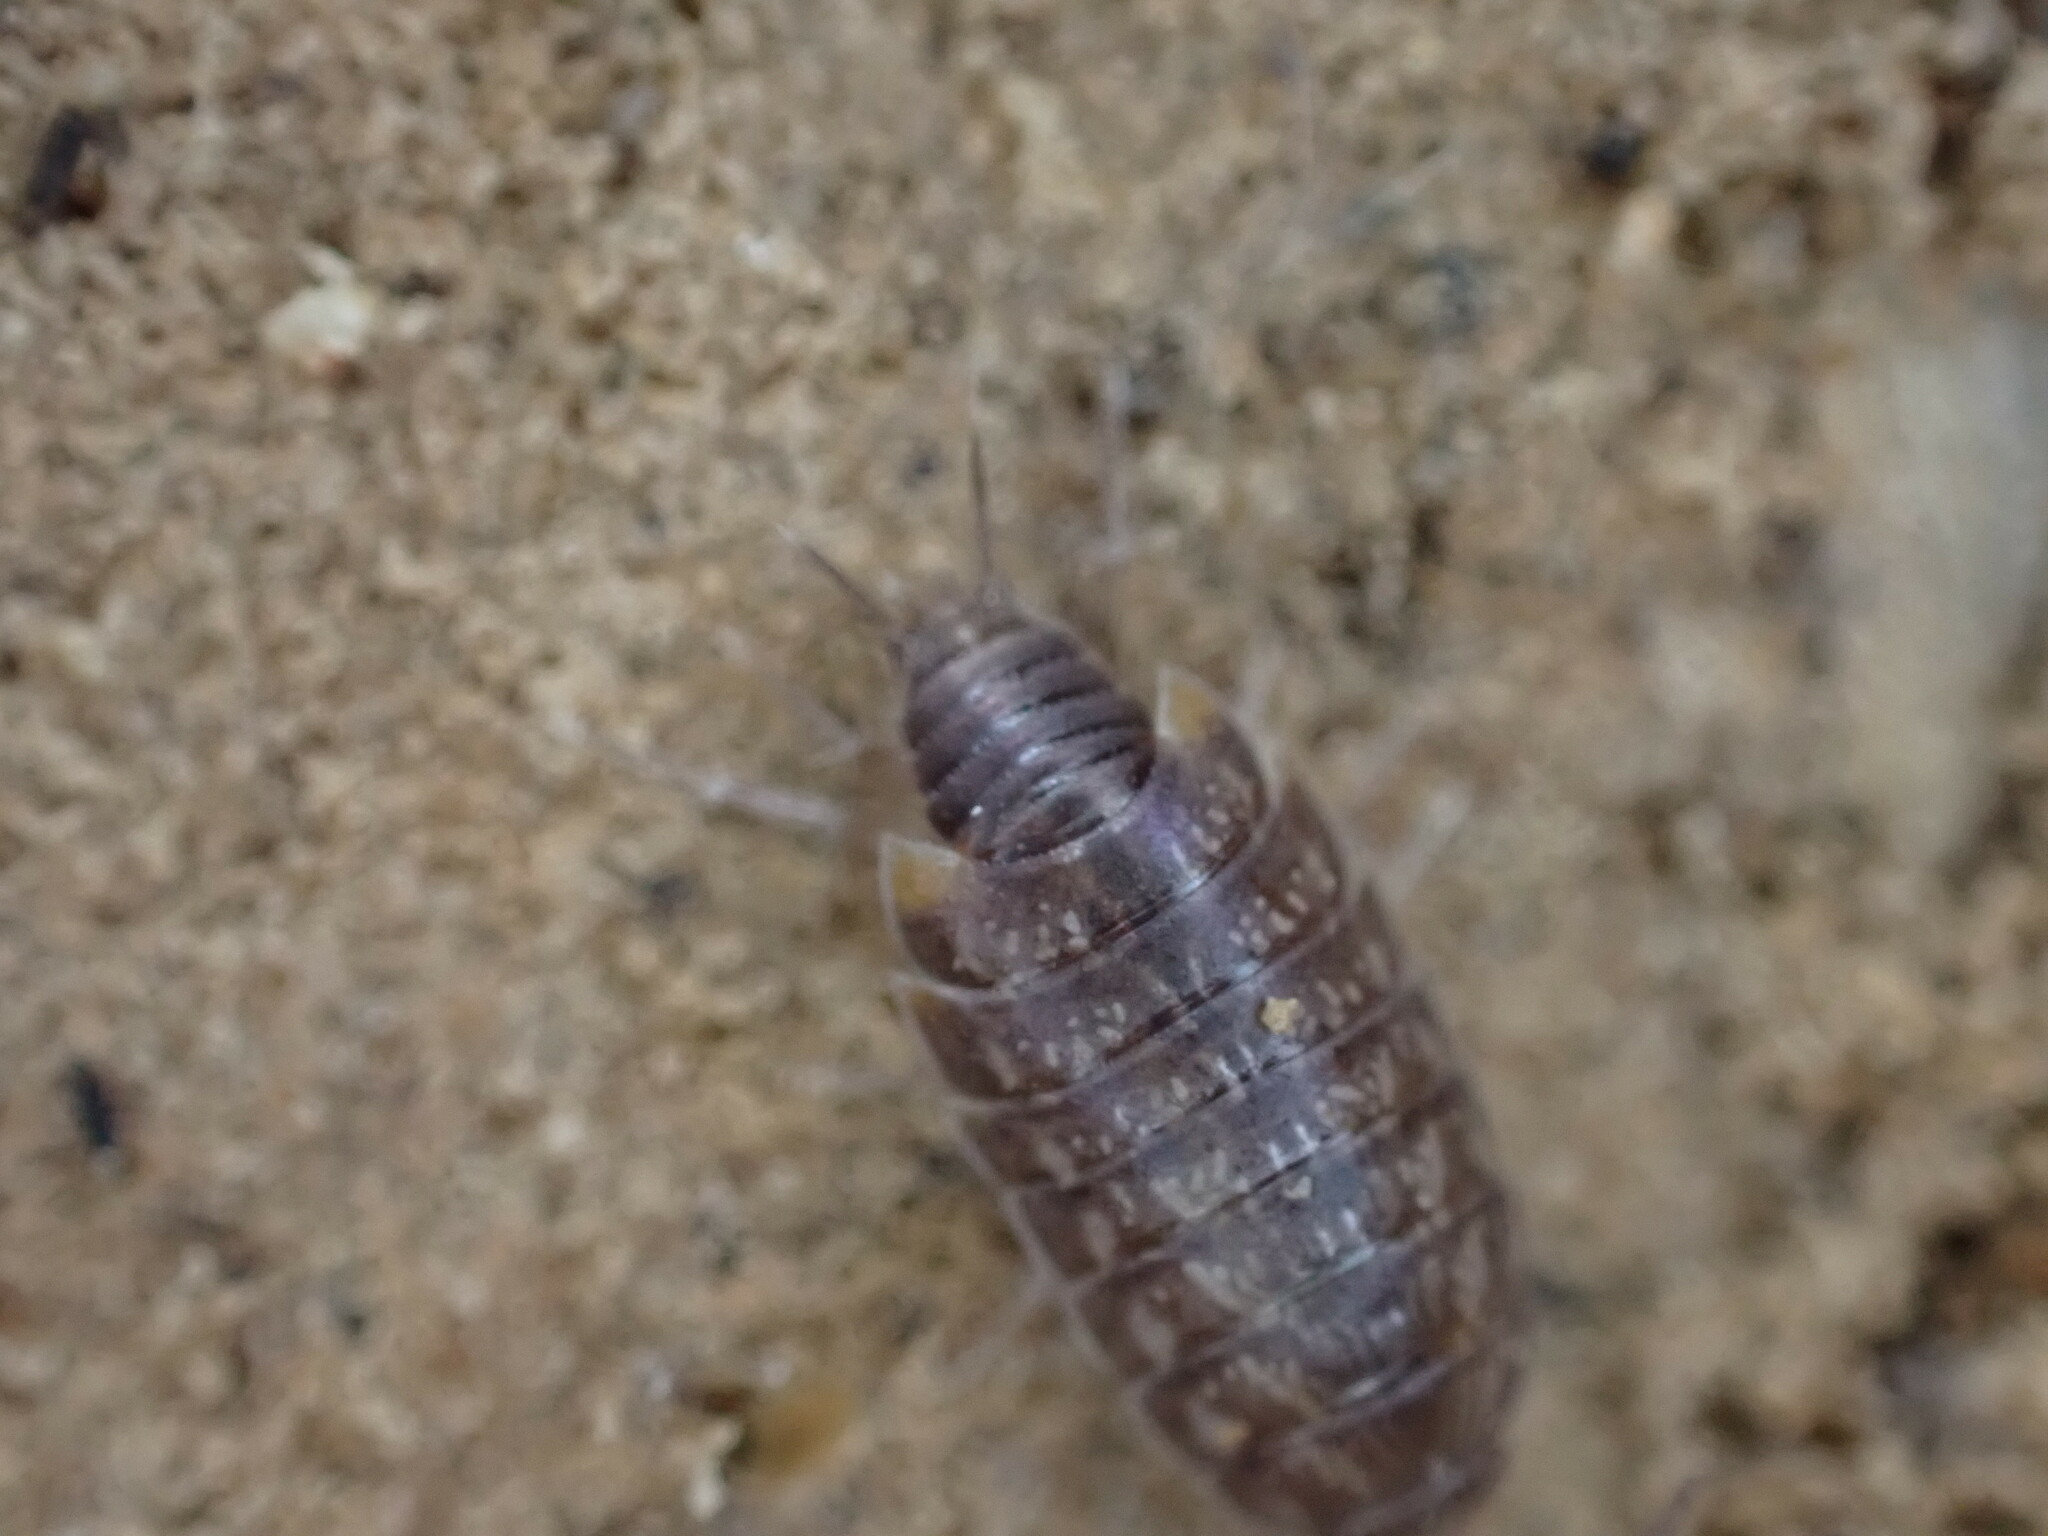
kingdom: Animalia
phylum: Arthropoda
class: Malacostraca
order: Isopoda
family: Philosciidae
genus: Chaetophiloscia
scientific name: Chaetophiloscia cellaria
